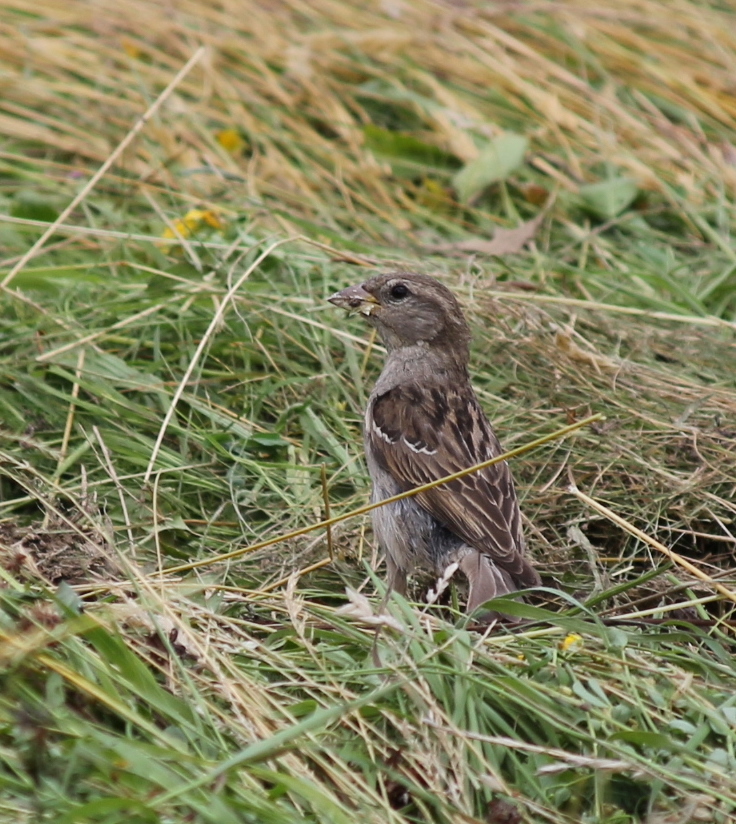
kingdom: Animalia
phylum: Chordata
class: Aves
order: Passeriformes
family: Passeridae
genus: Passer
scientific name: Passer domesticus
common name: House sparrow
